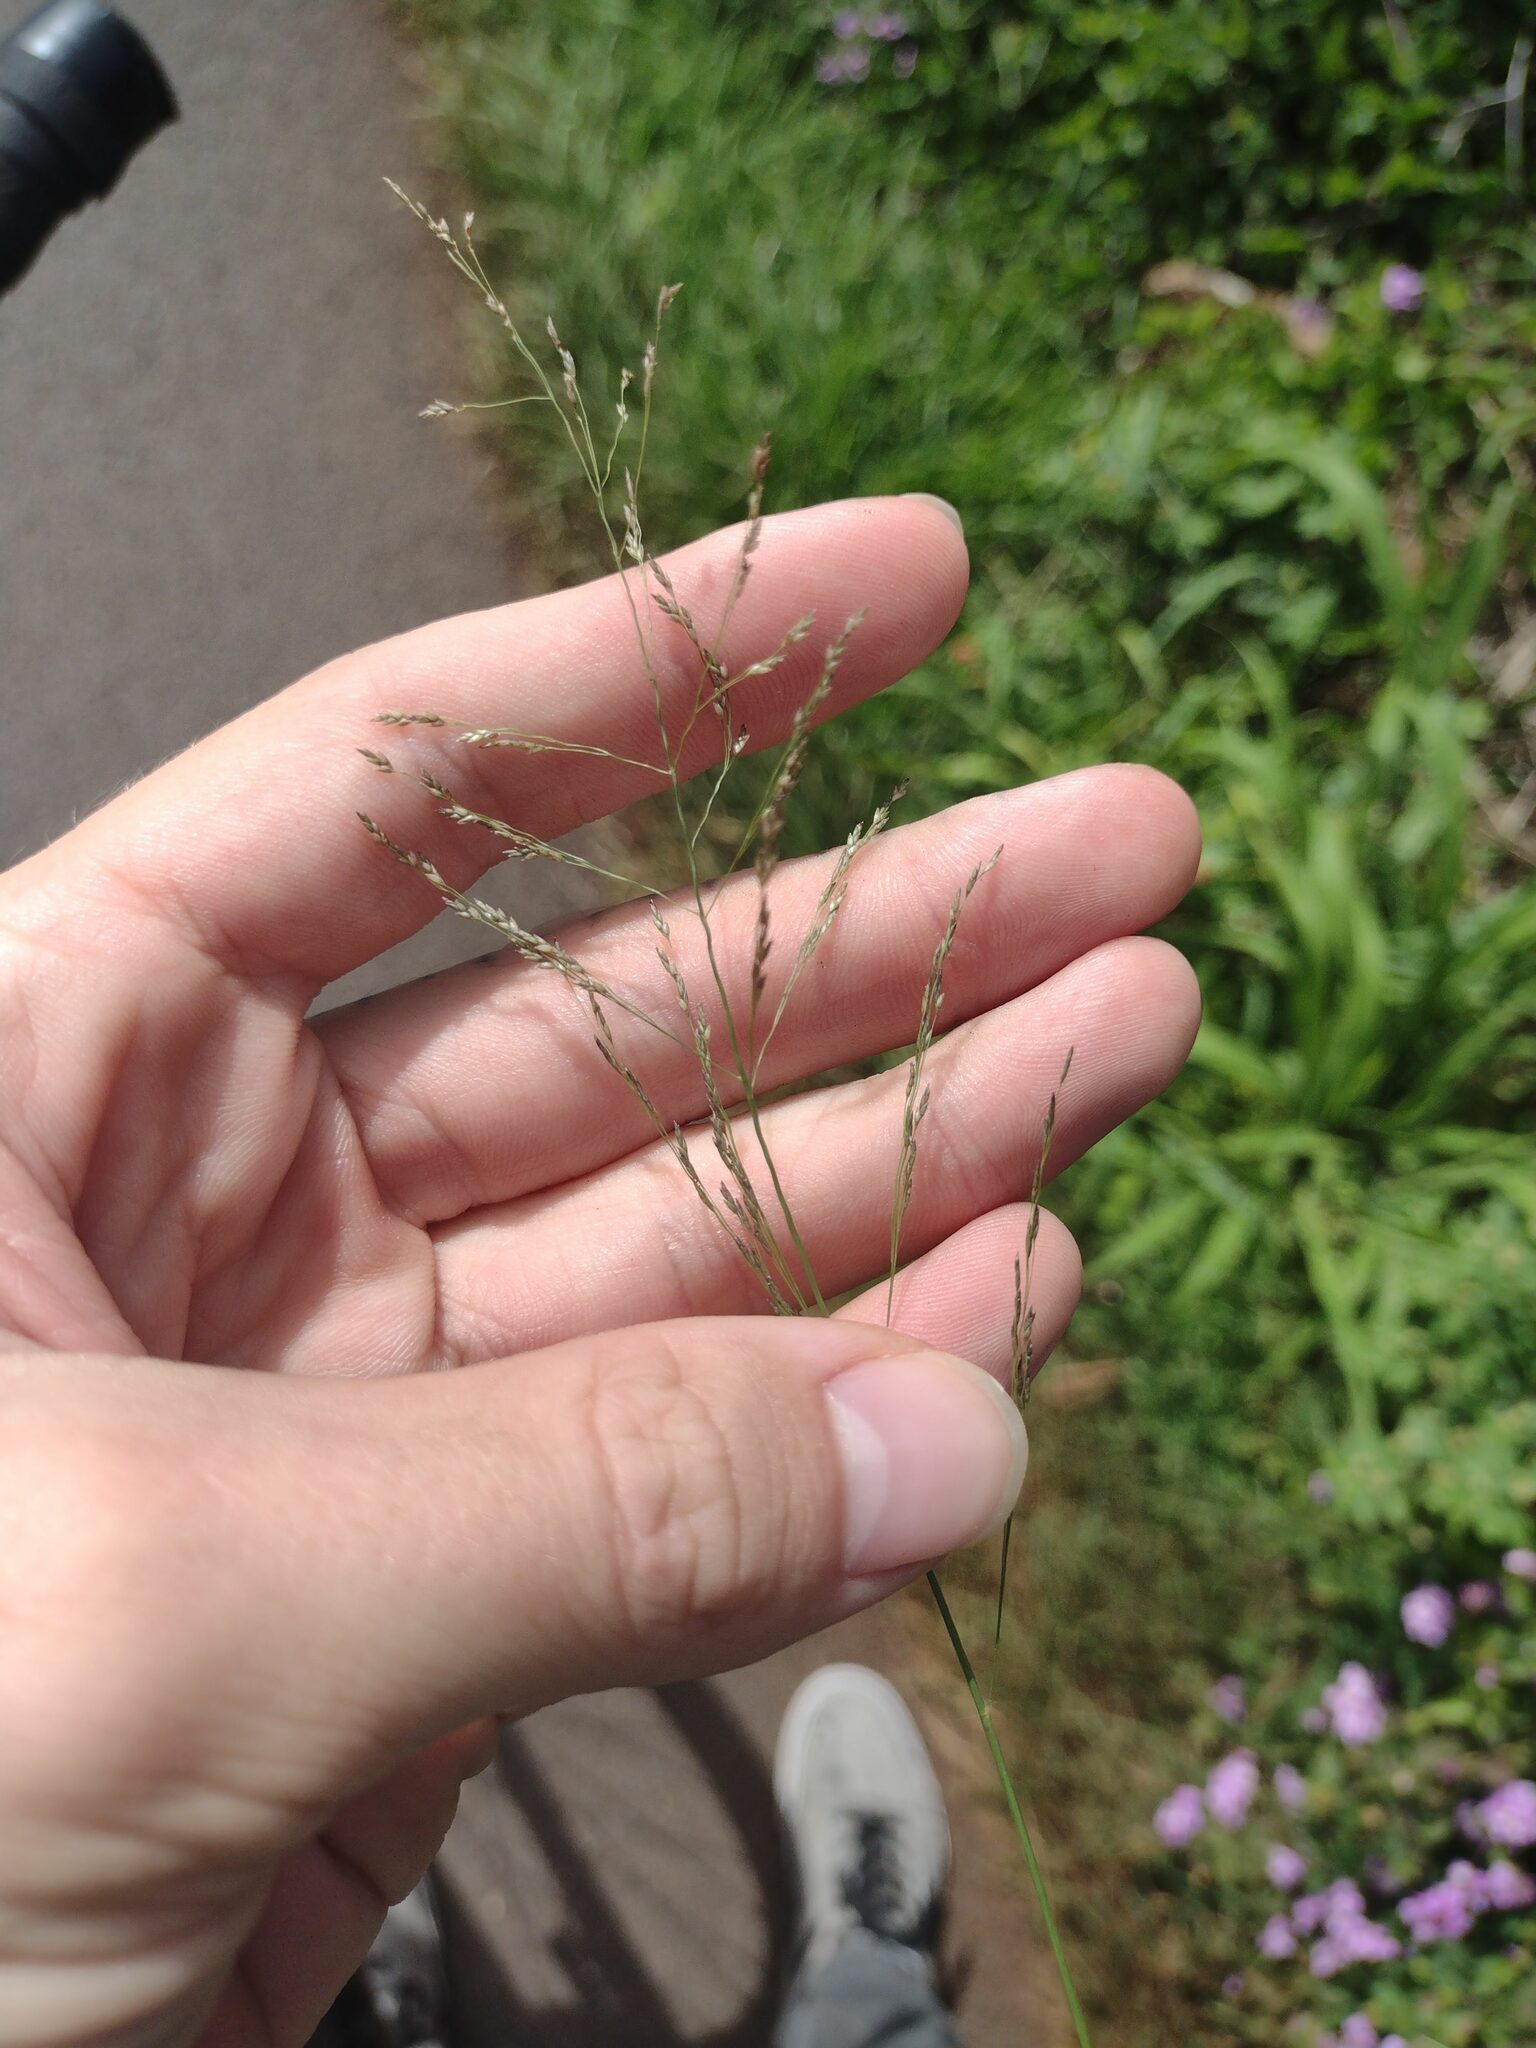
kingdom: Plantae
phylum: Tracheophyta
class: Liliopsida
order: Poales
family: Poaceae
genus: Eragrostis
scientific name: Eragrostis pilosa
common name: Indian lovegrass
